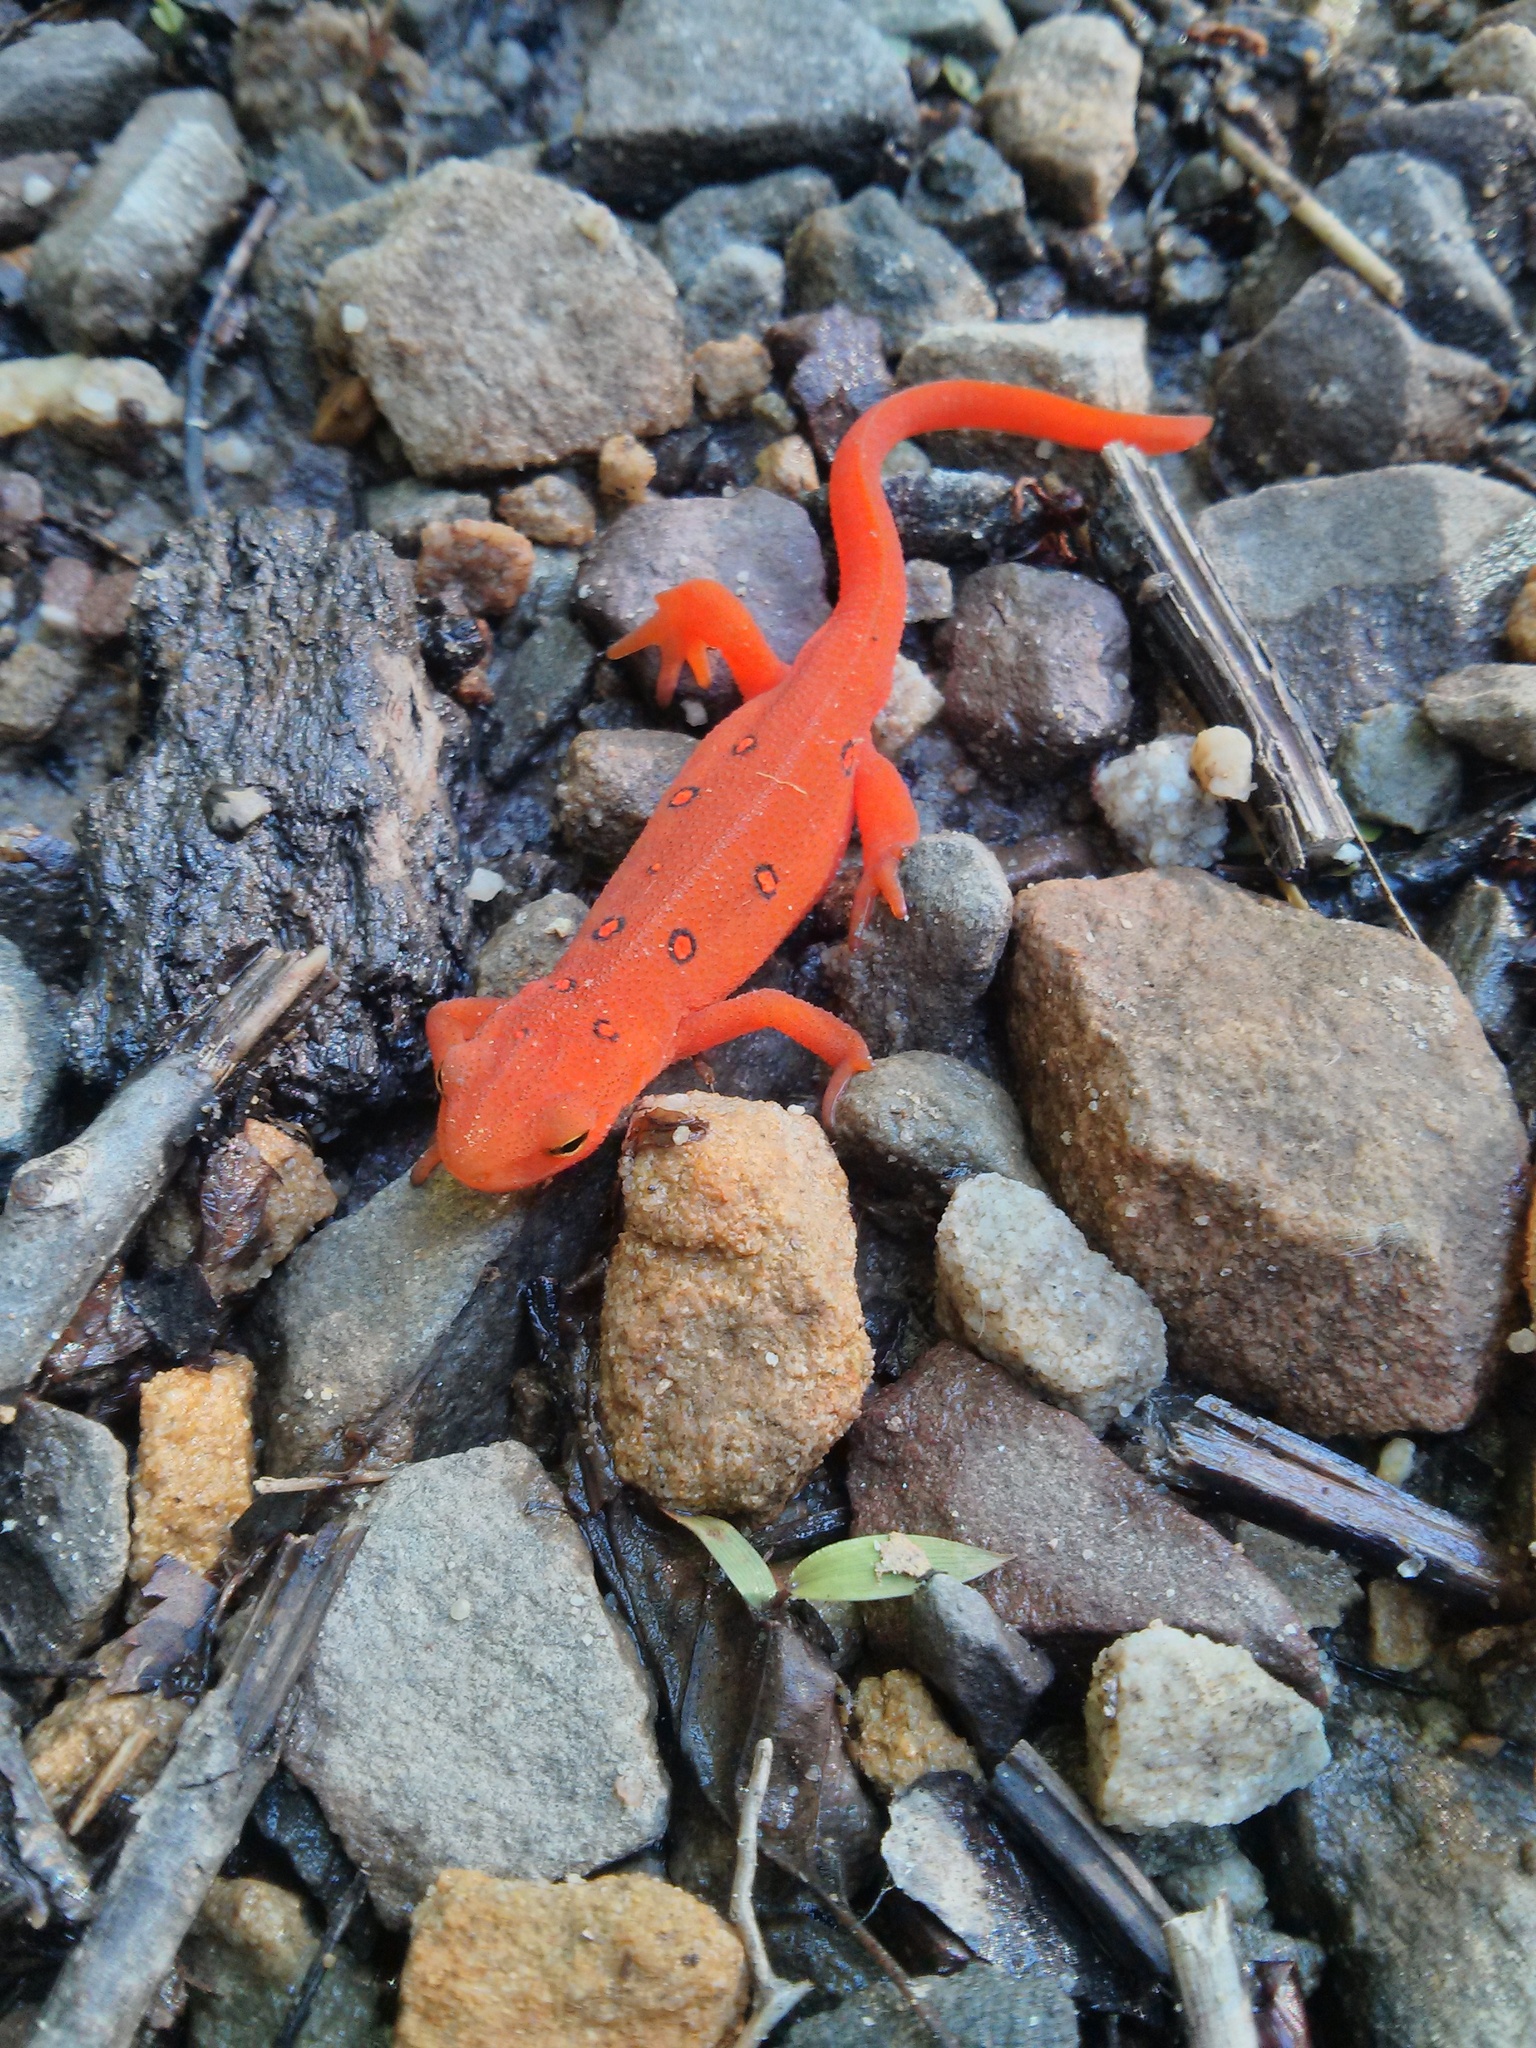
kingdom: Animalia
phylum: Chordata
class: Amphibia
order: Caudata
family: Salamandridae
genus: Notophthalmus
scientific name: Notophthalmus viridescens
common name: Eastern newt
